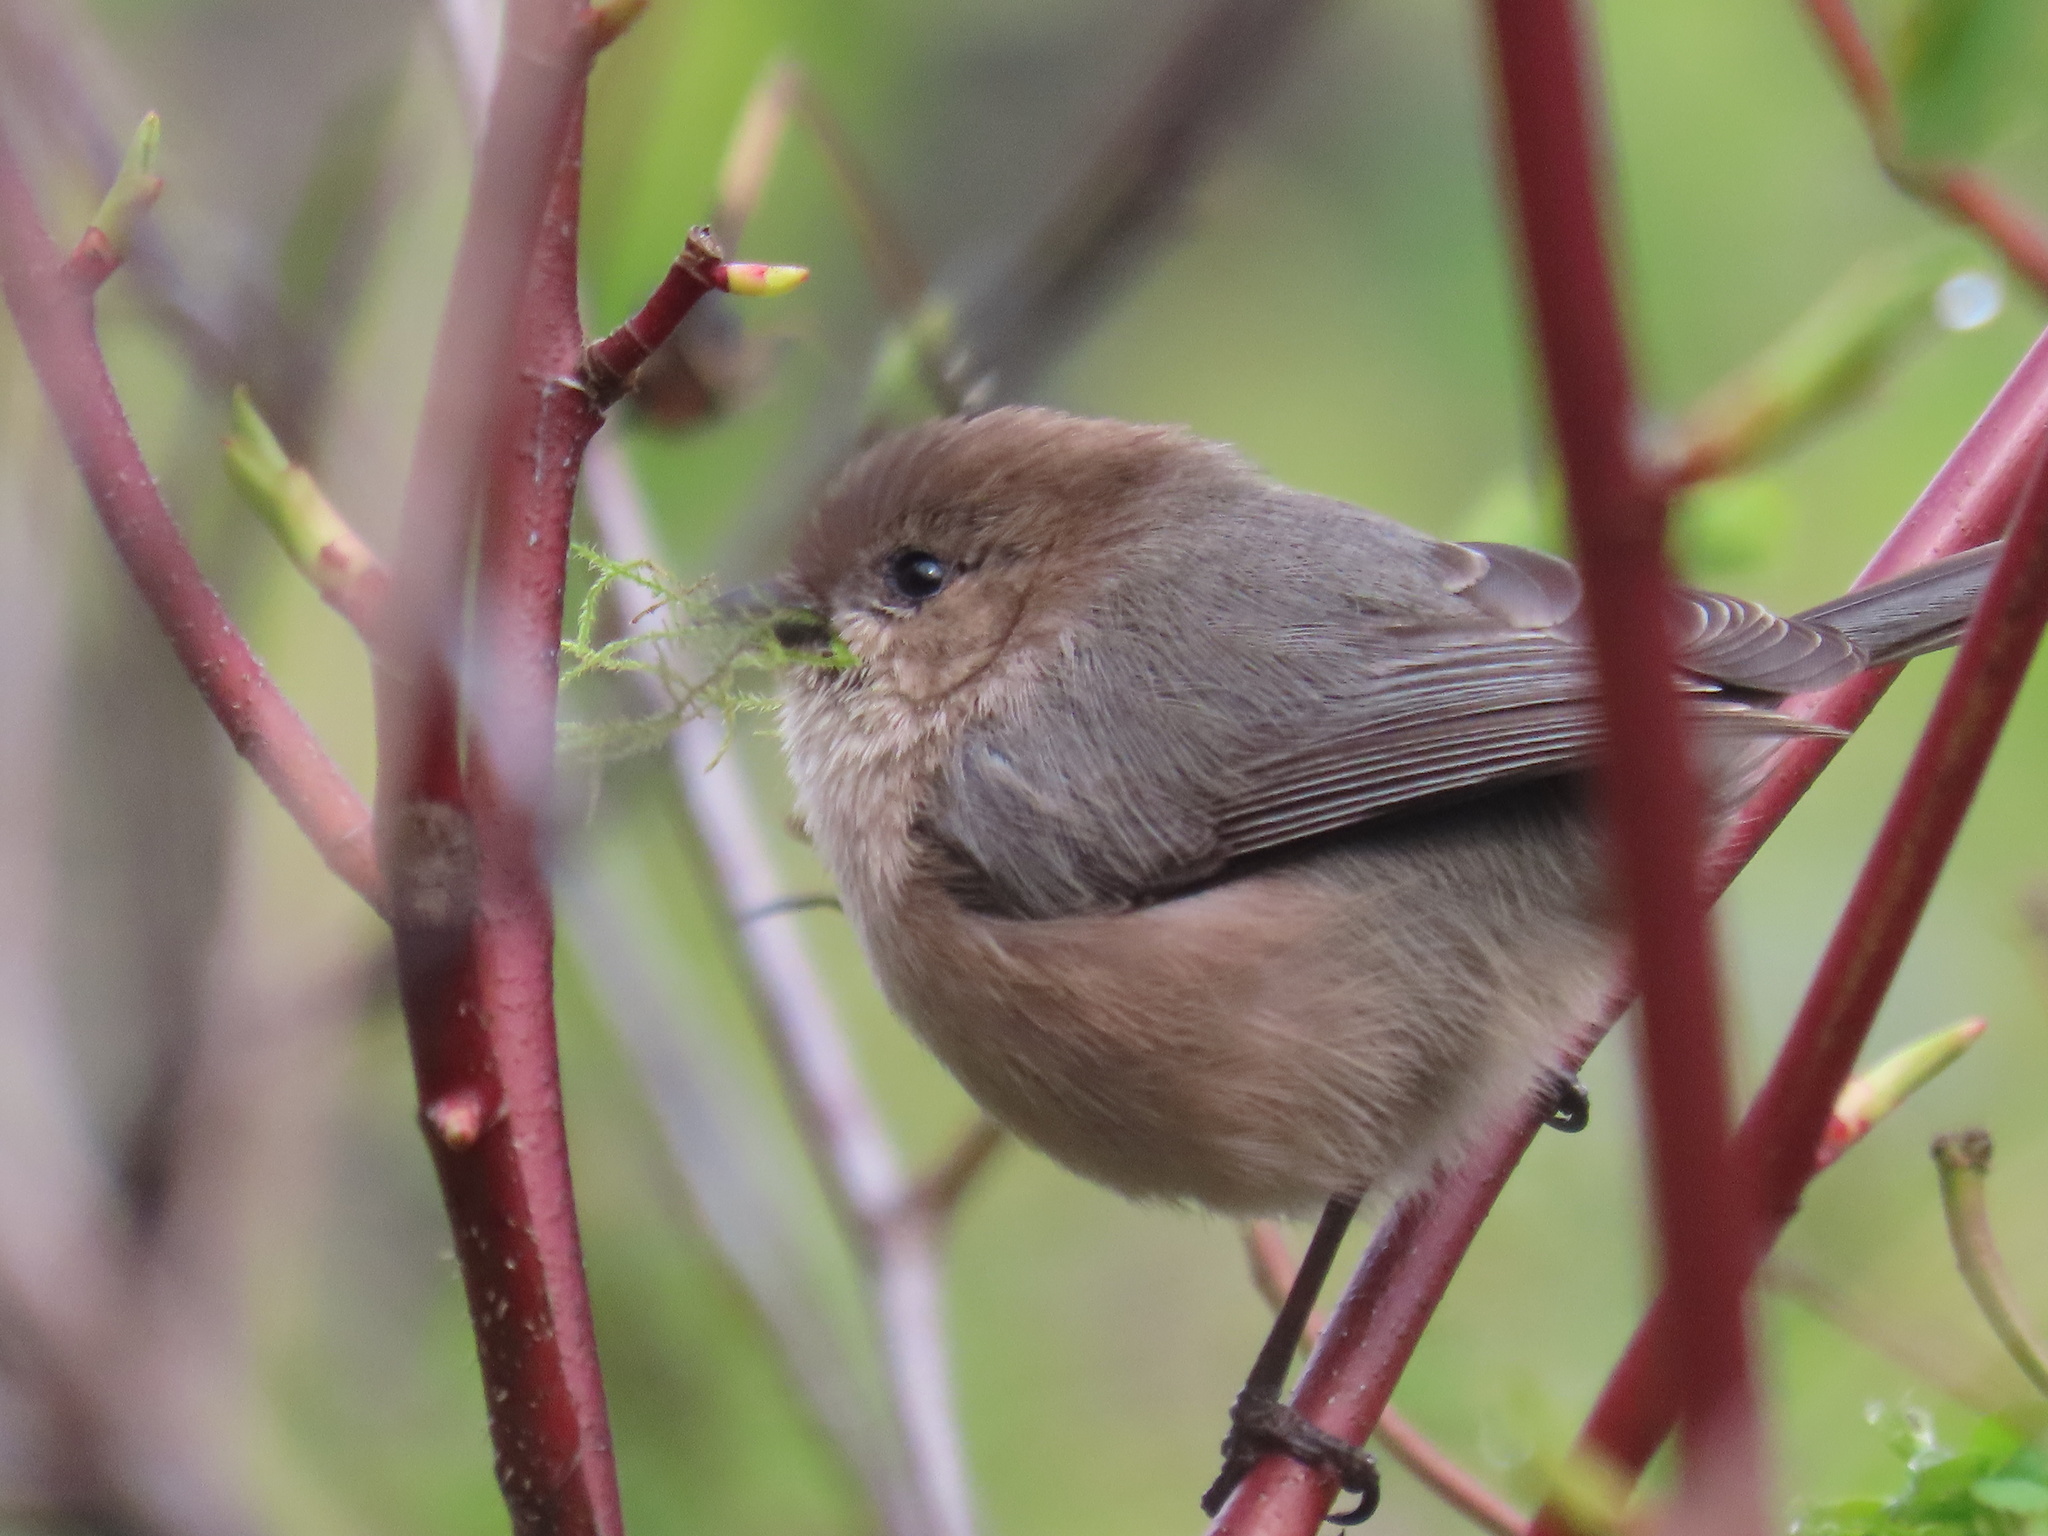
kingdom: Animalia
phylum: Chordata
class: Aves
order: Passeriformes
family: Aegithalidae
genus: Psaltriparus
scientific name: Psaltriparus minimus
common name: American bushtit
